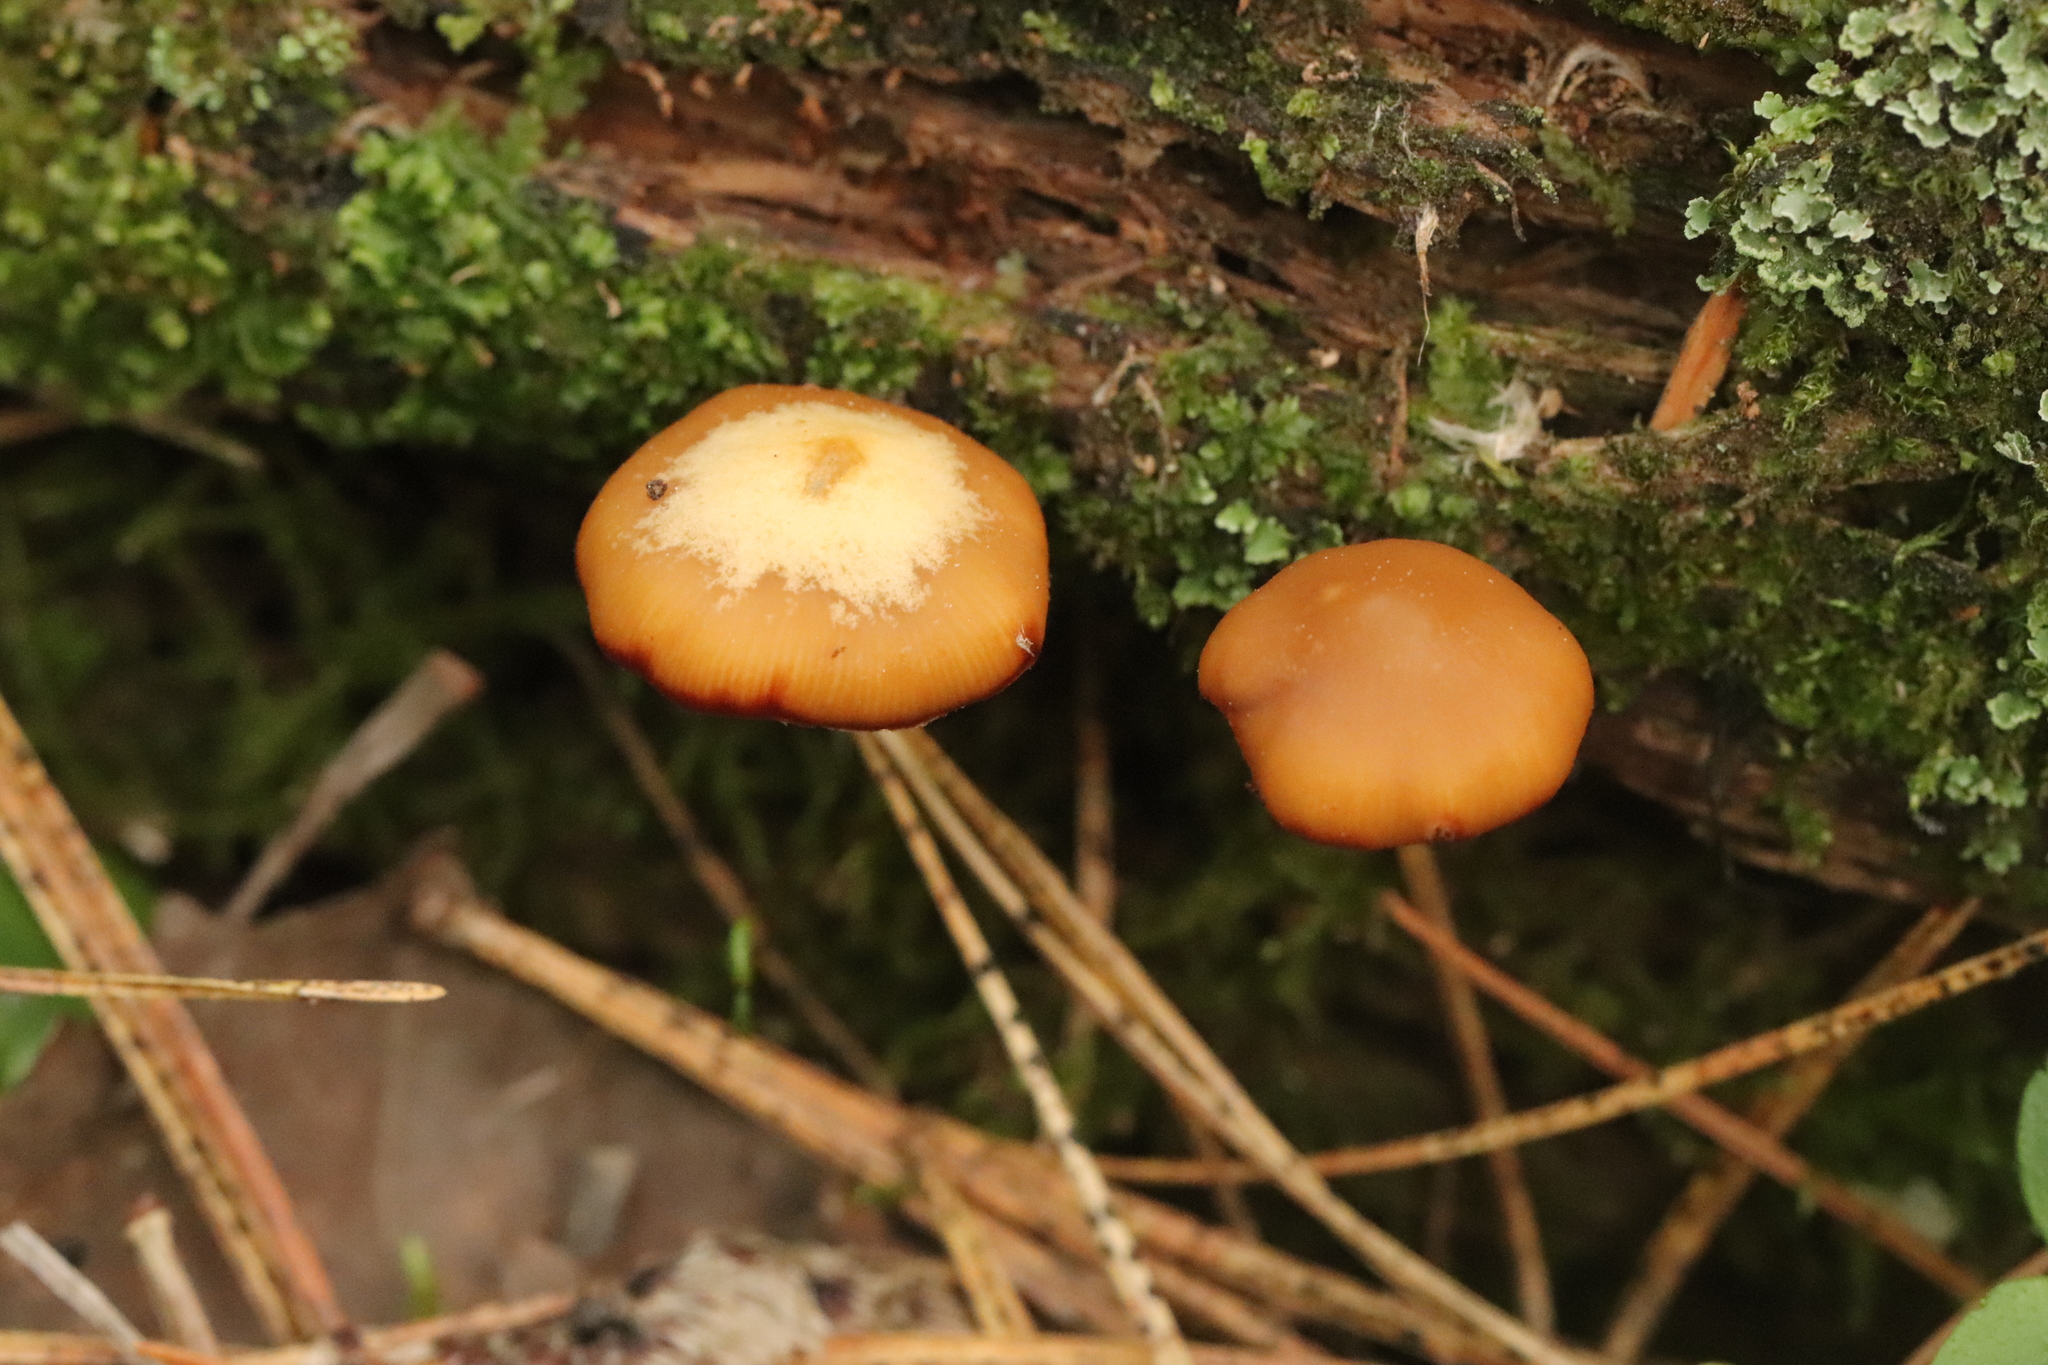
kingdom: Fungi
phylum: Basidiomycota
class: Agaricomycetes
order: Agaricales
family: Strophariaceae
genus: Pholiota
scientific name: Pholiota lignicola
